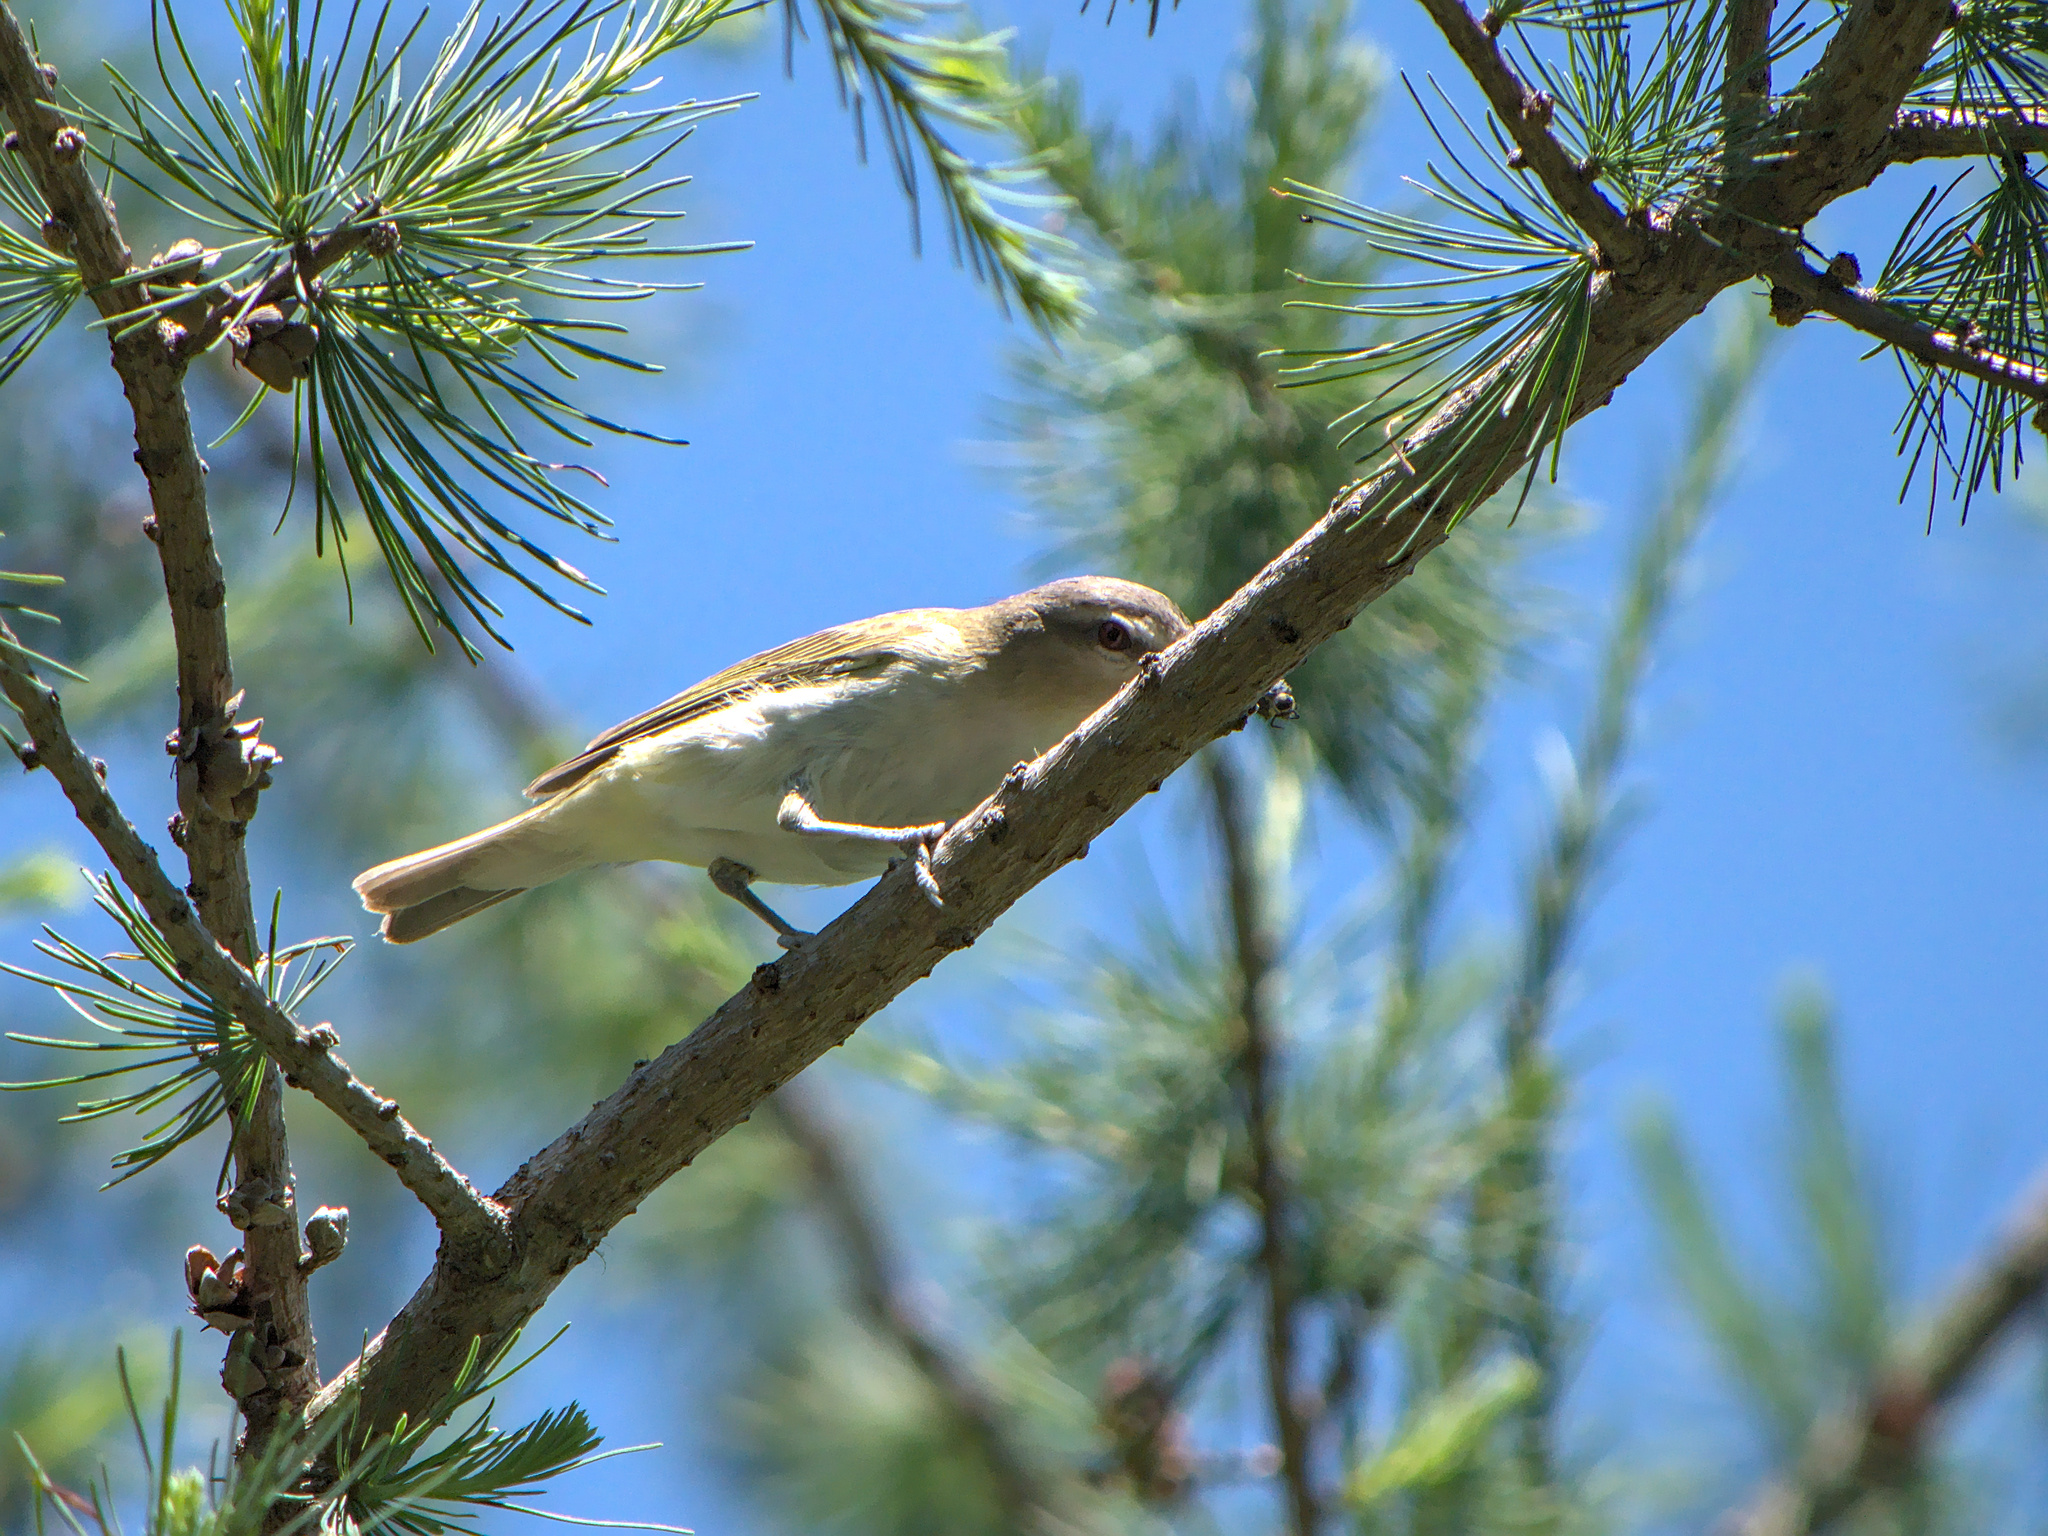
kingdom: Animalia
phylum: Chordata
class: Aves
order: Passeriformes
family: Vireonidae
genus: Vireo
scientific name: Vireo olivaceus
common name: Red-eyed vireo
